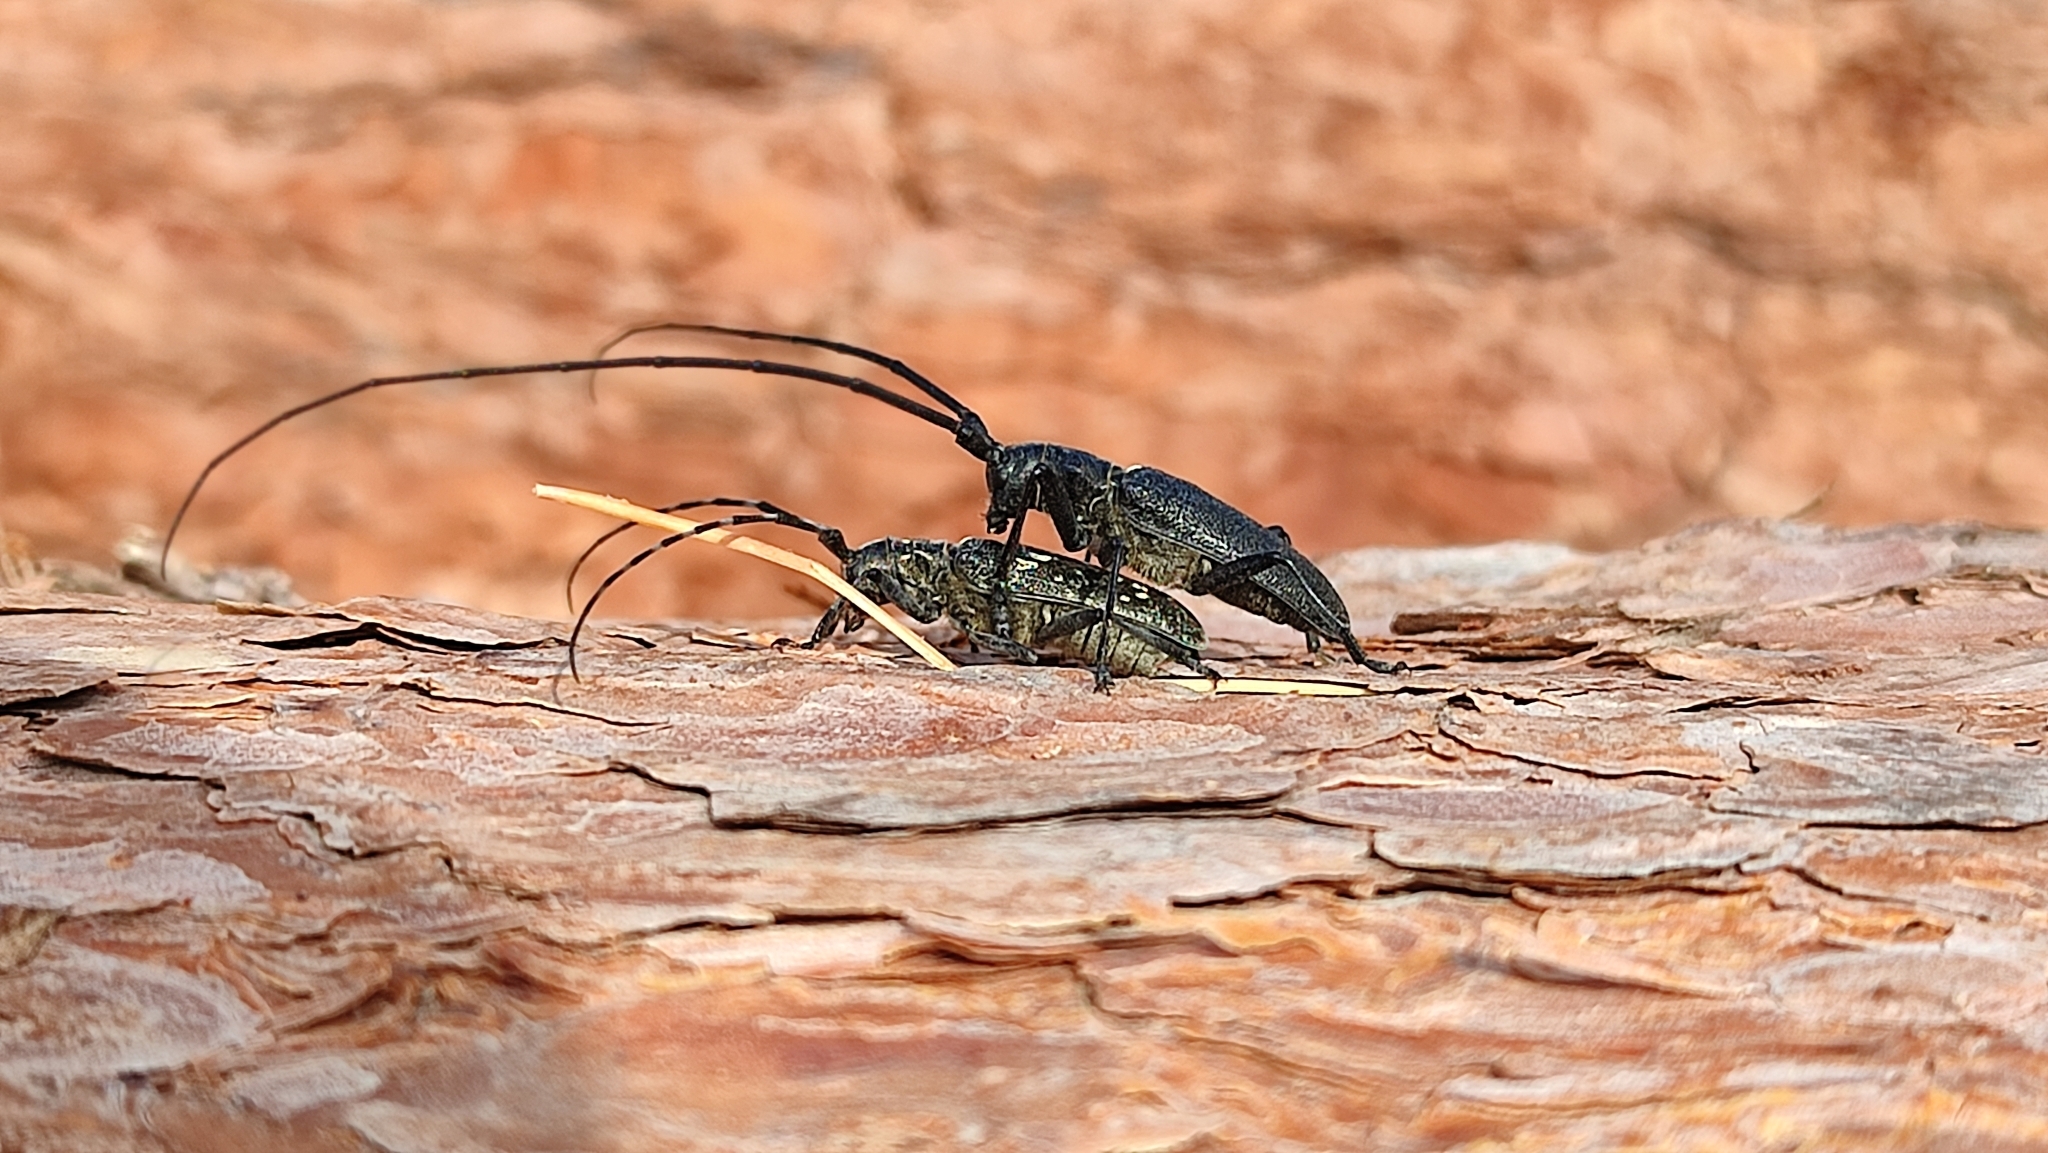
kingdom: Animalia
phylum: Arthropoda
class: Insecta
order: Coleoptera
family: Cerambycidae
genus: Monochamus
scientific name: Monochamus sutor
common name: Pine sawyer
